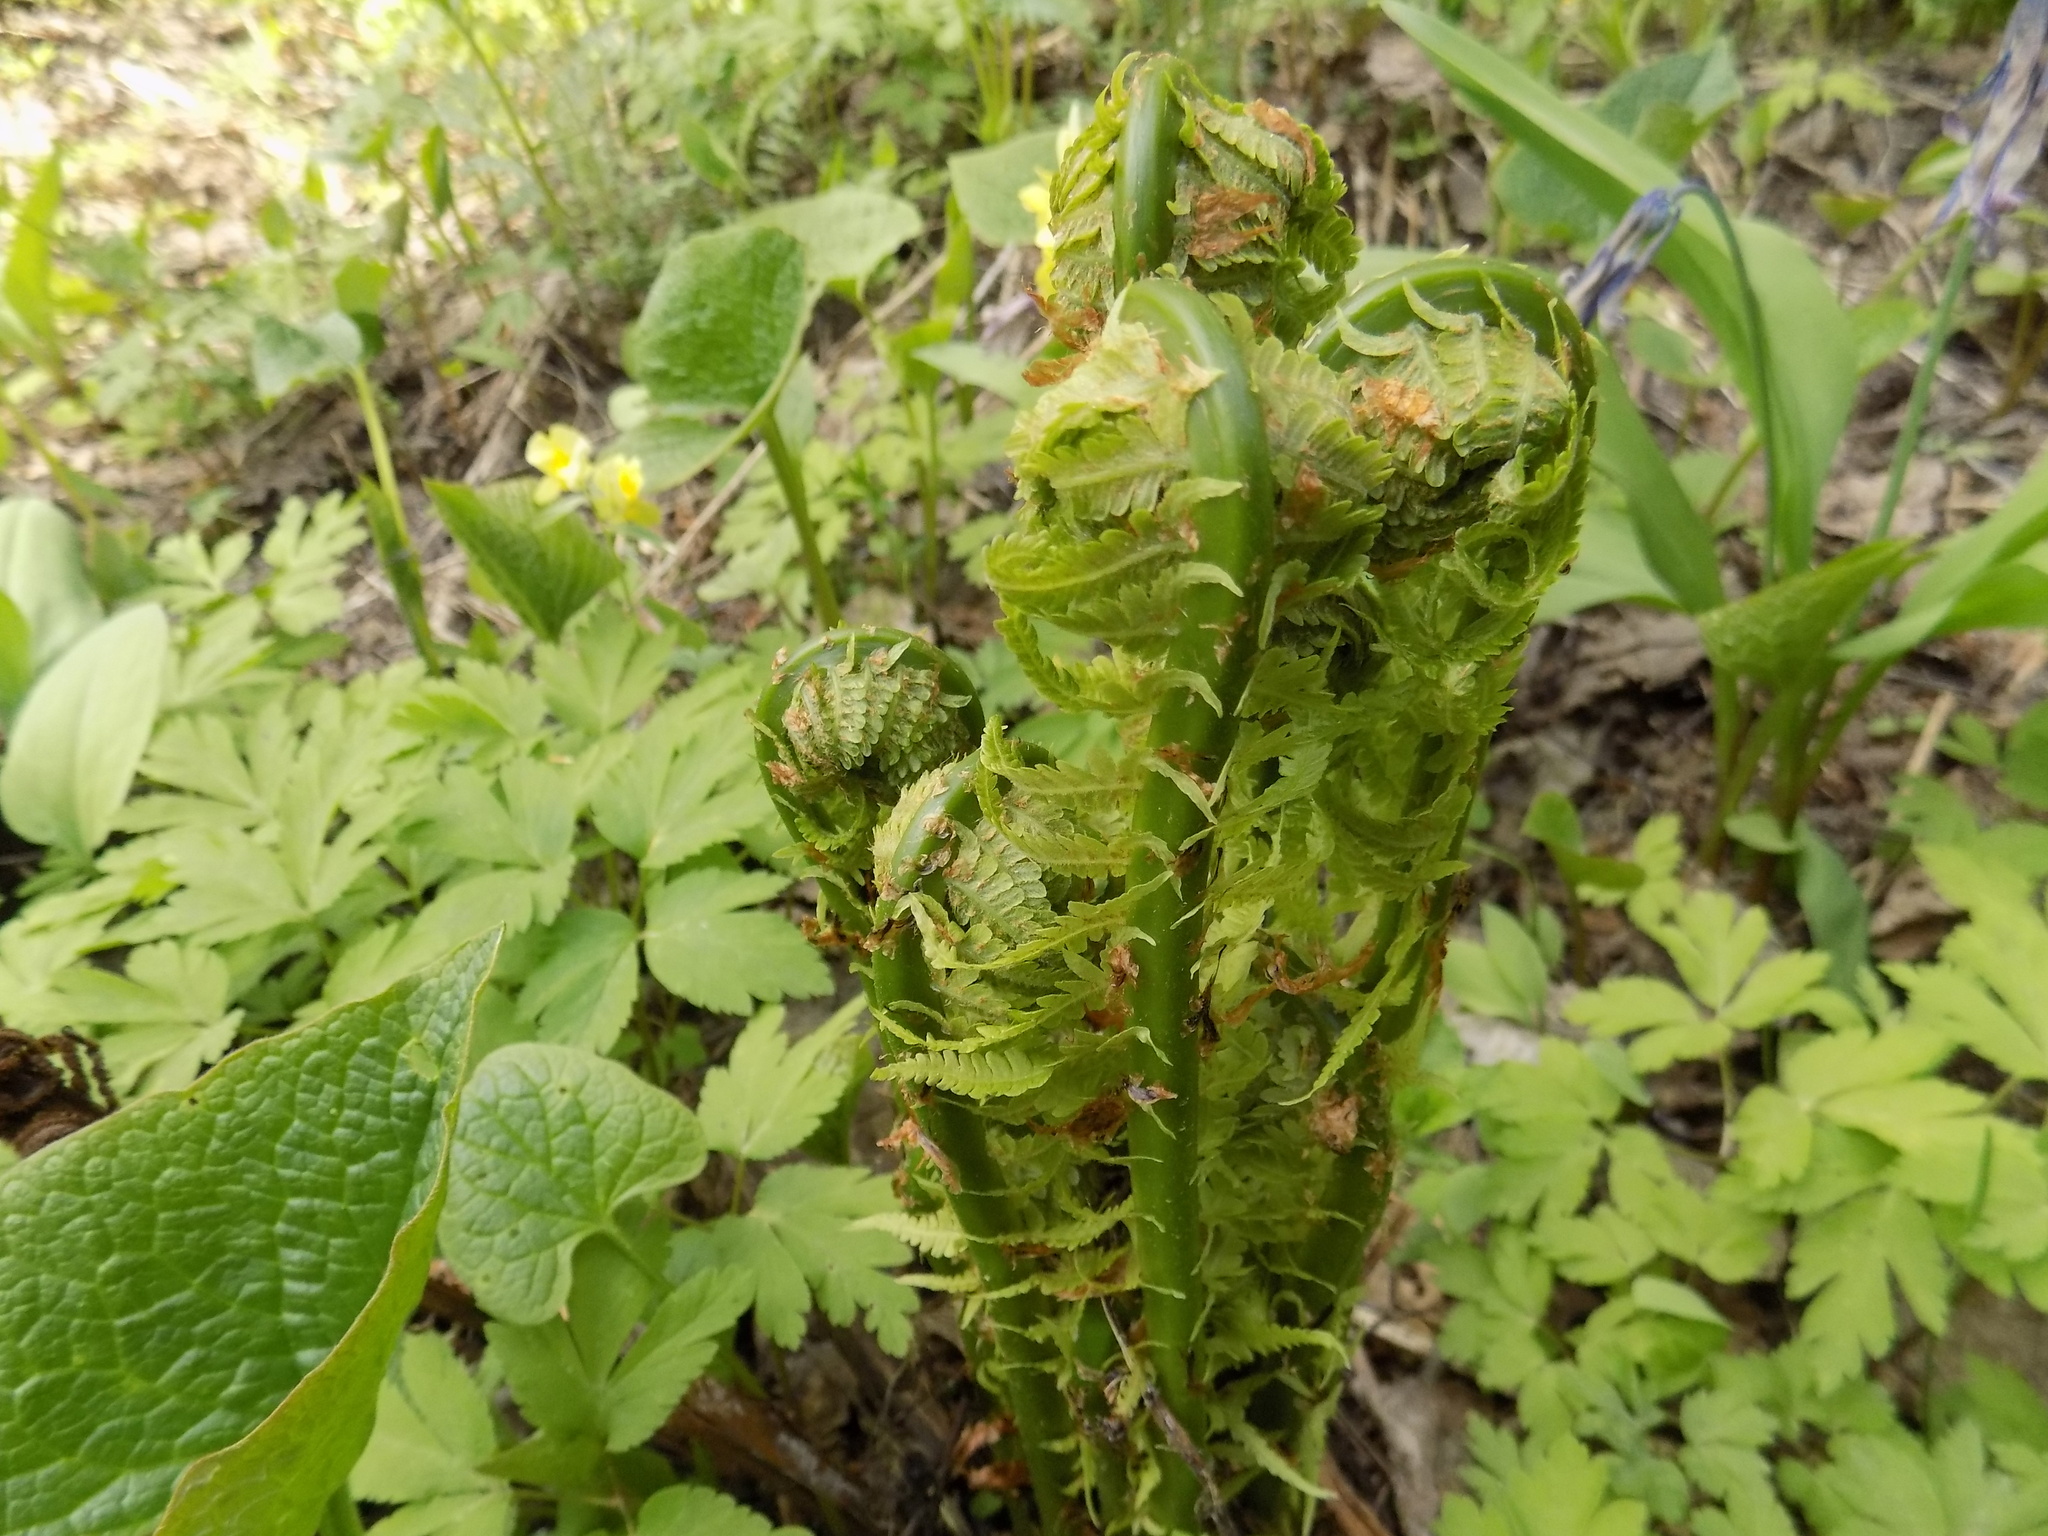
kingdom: Plantae
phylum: Tracheophyta
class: Polypodiopsida
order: Polypodiales
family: Onocleaceae
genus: Matteuccia
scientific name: Matteuccia struthiopteris
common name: Ostrich fern
